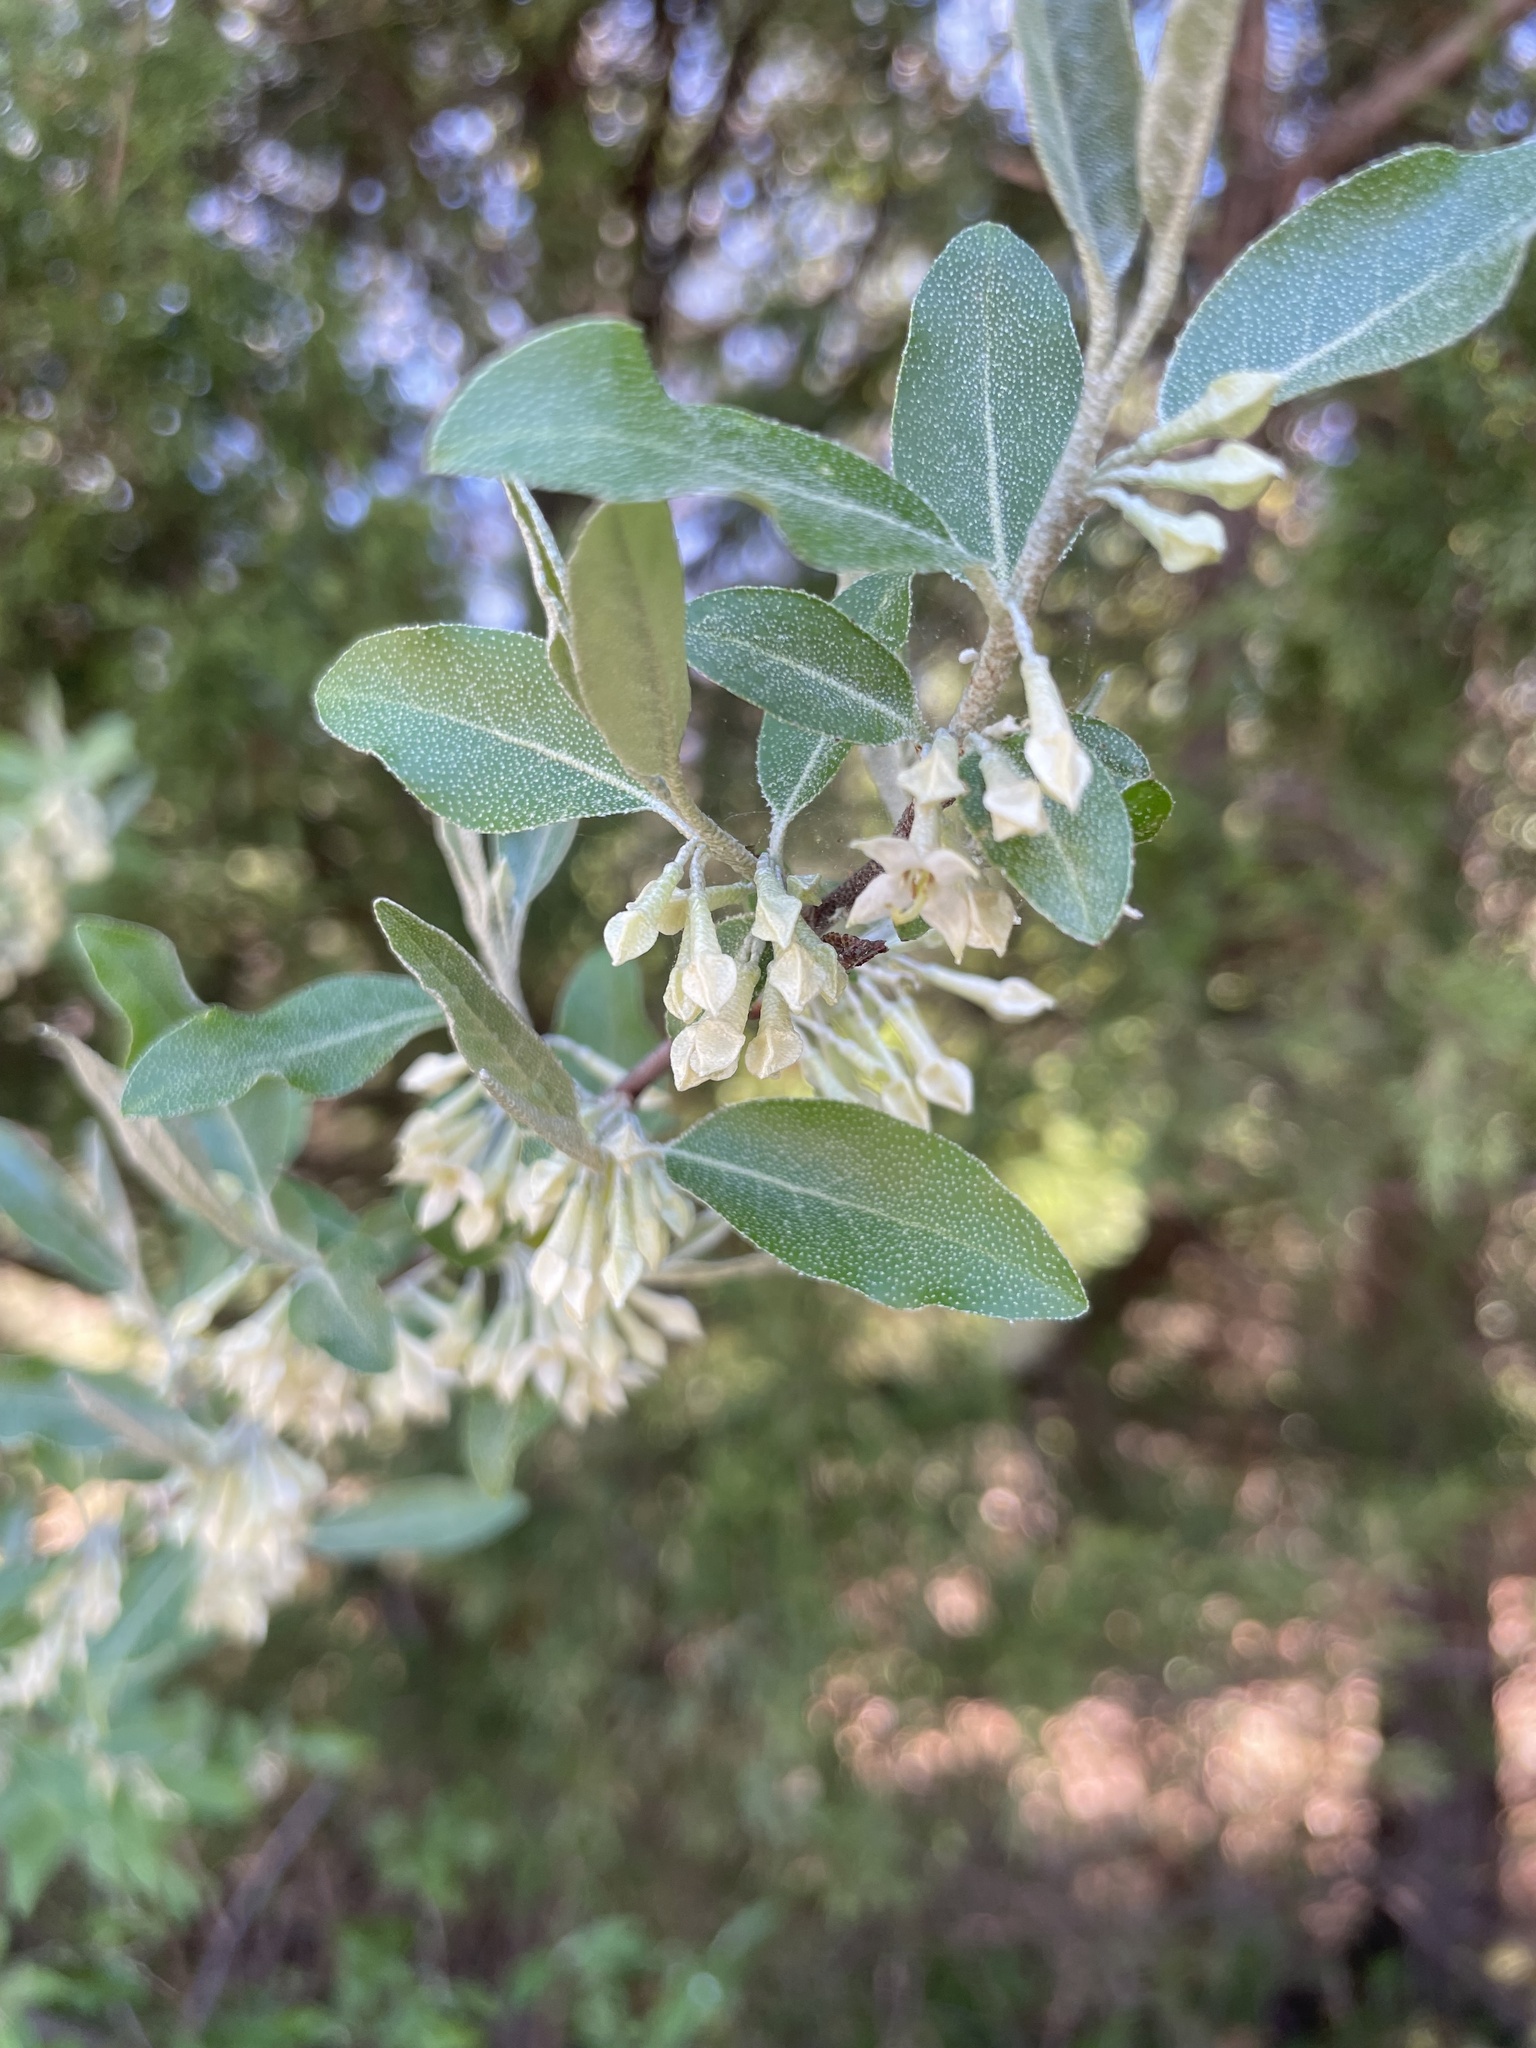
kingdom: Plantae
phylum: Tracheophyta
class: Magnoliopsida
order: Rosales
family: Elaeagnaceae
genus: Elaeagnus
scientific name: Elaeagnus umbellata
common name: Autumn olive
